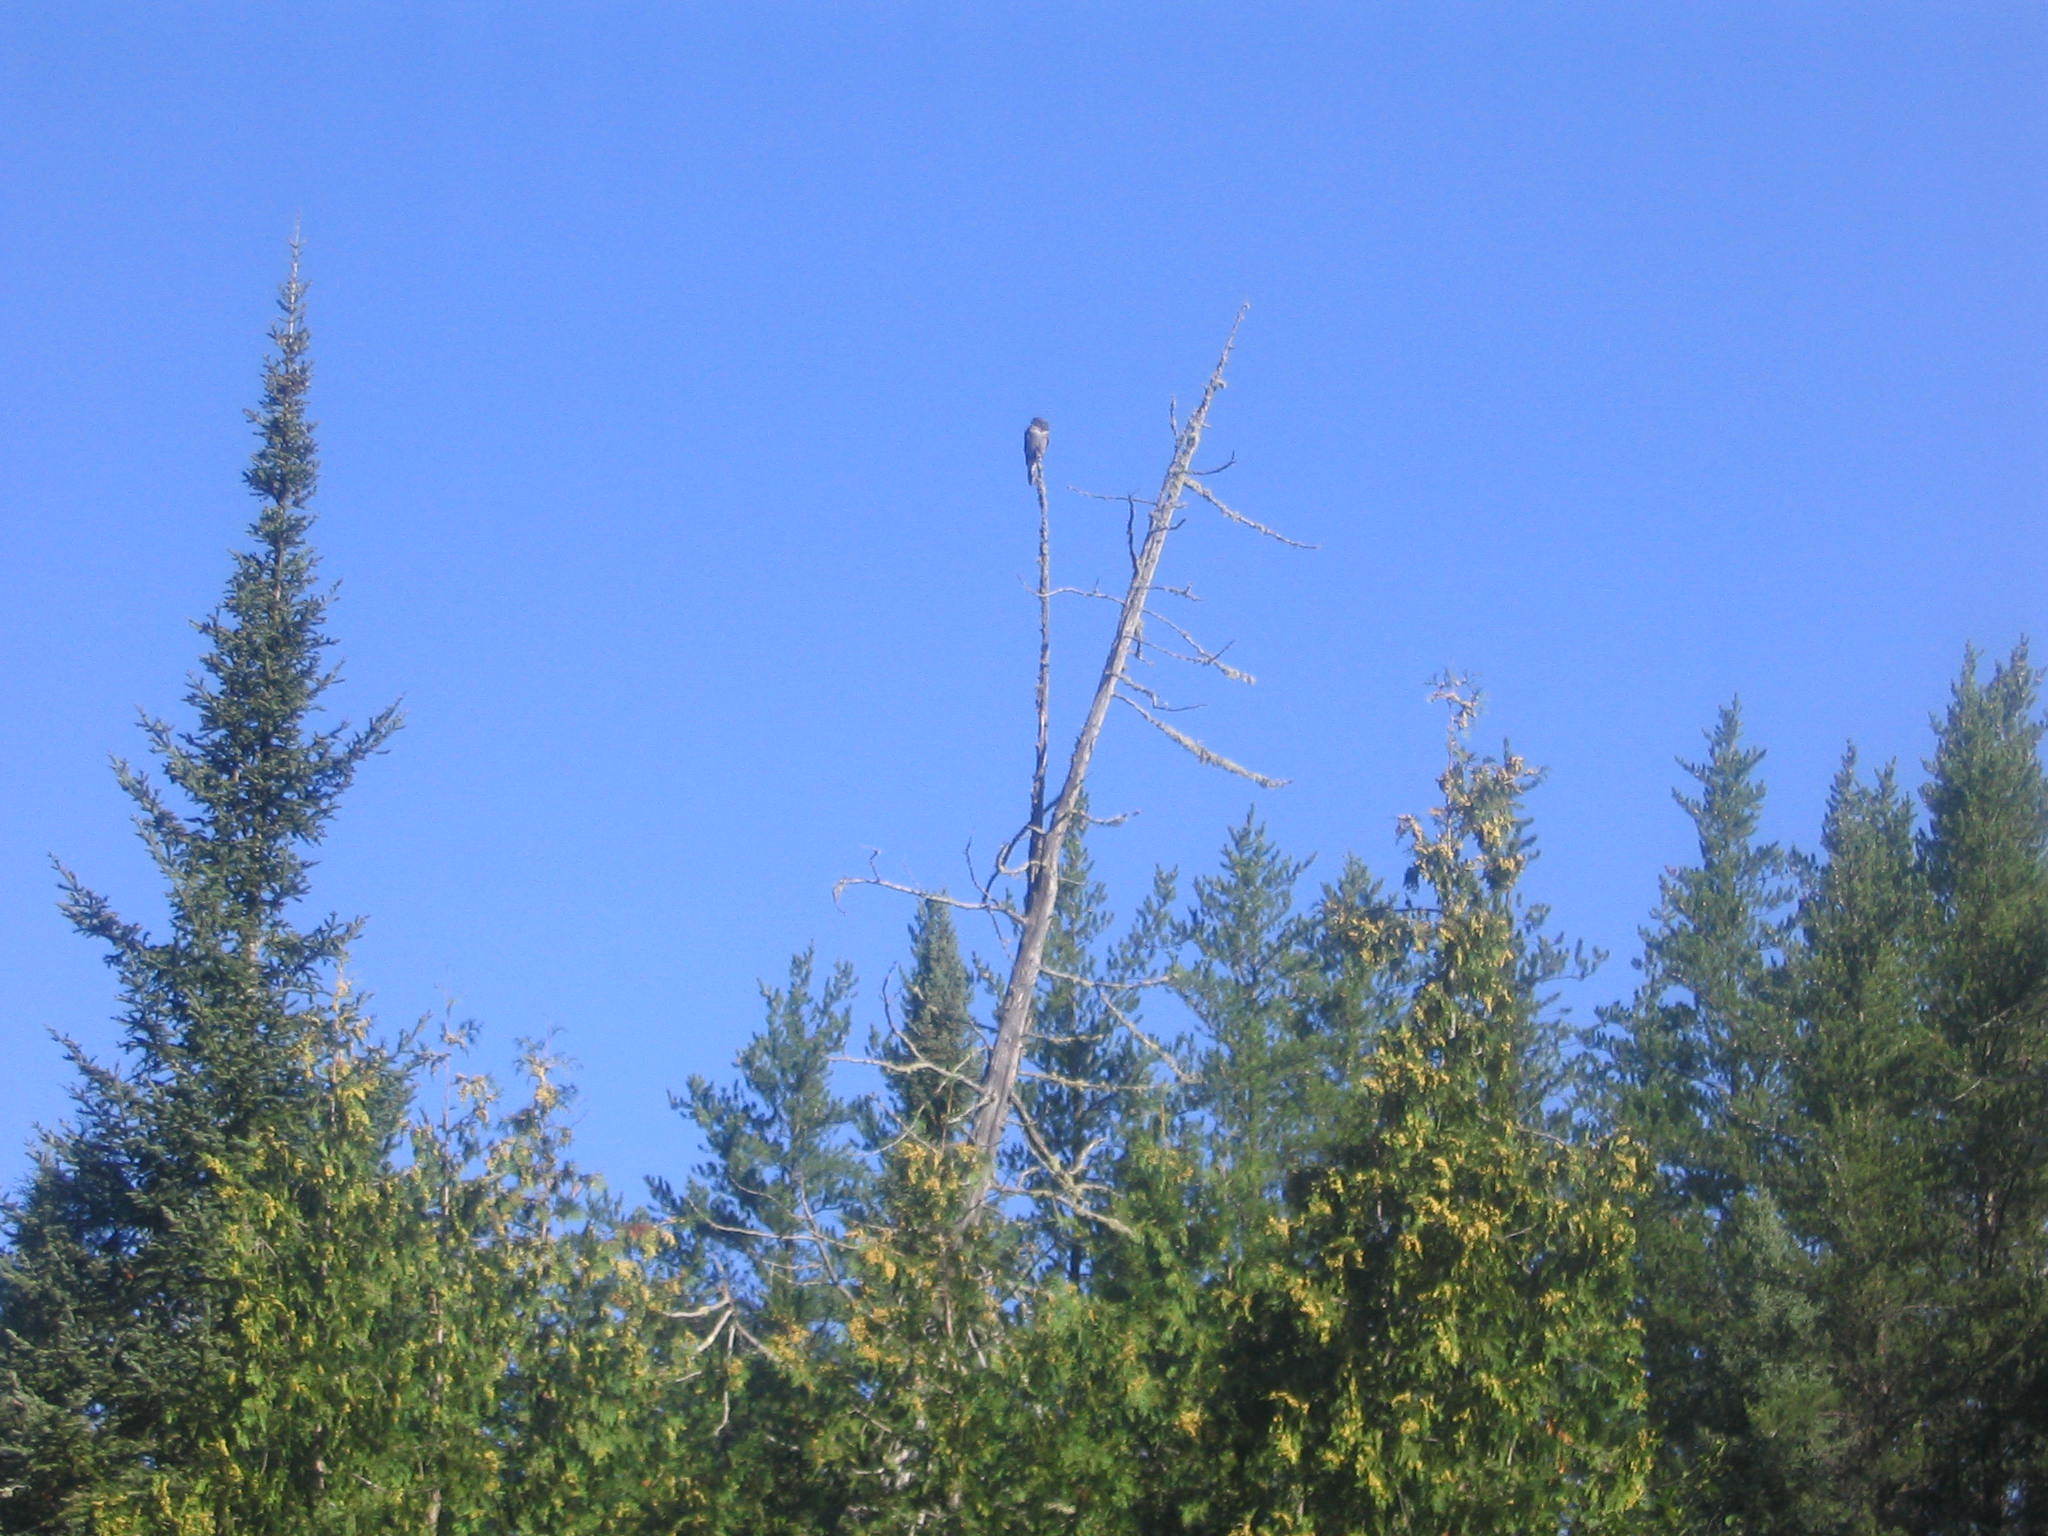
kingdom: Animalia
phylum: Chordata
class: Aves
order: Strigiformes
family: Strigidae
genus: Surnia
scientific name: Surnia ulula
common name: Northern hawk-owl
